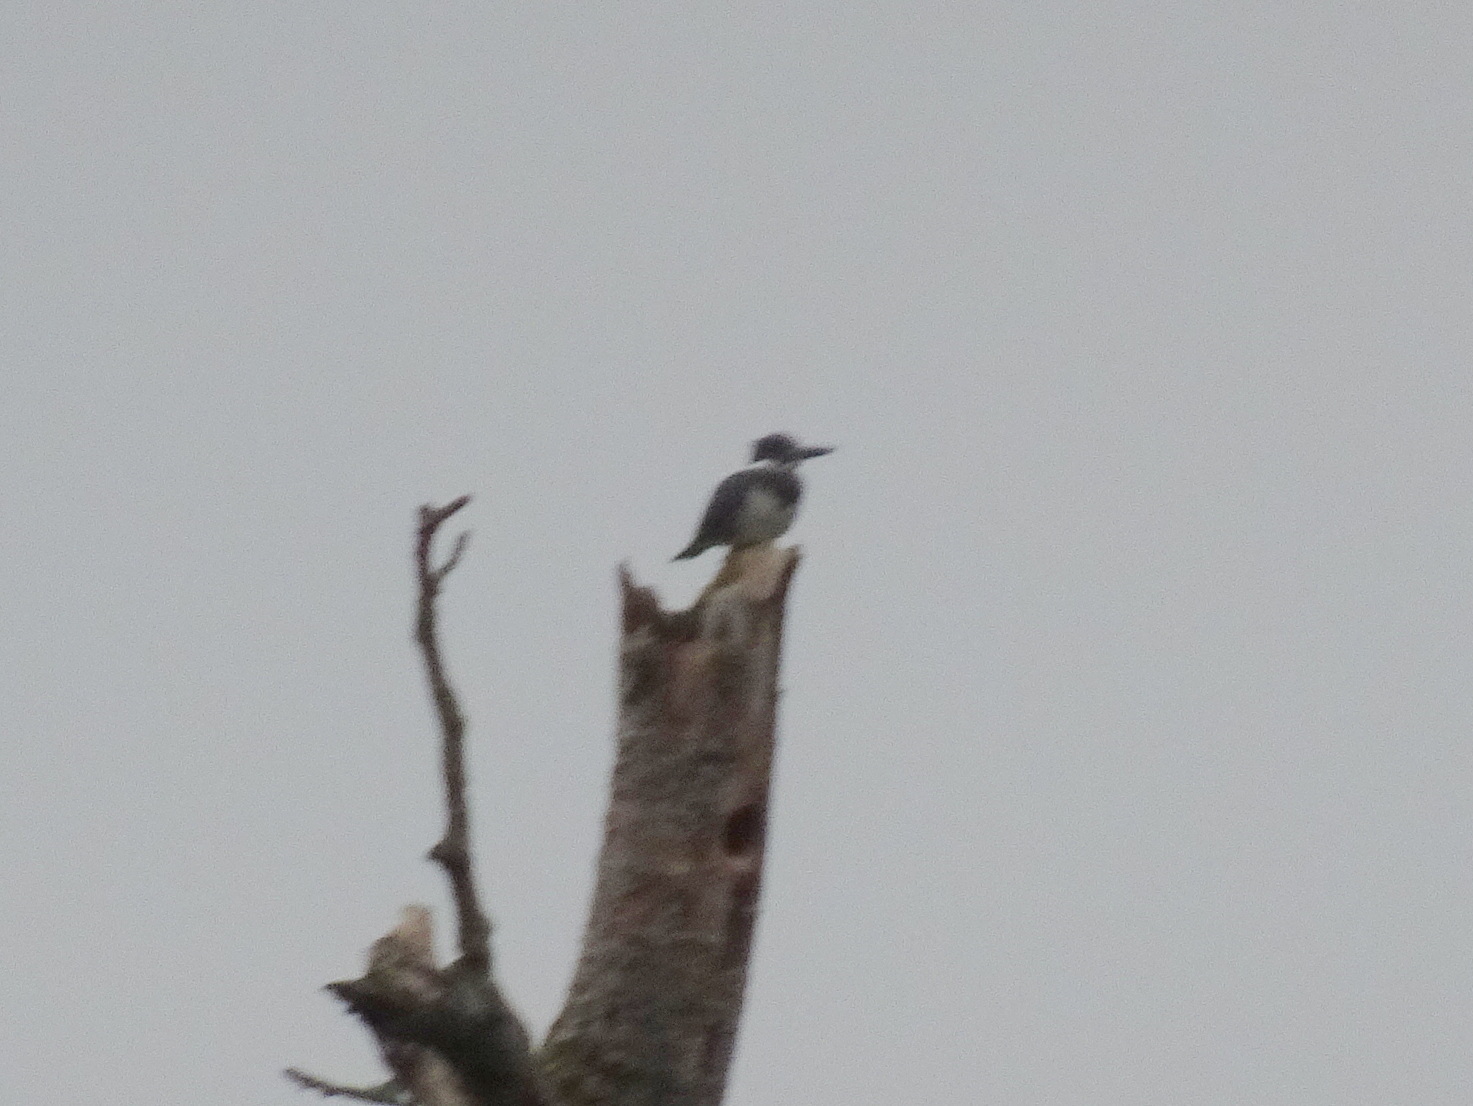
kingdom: Animalia
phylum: Chordata
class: Aves
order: Coraciiformes
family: Alcedinidae
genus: Megaceryle
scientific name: Megaceryle alcyon
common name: Belted kingfisher
